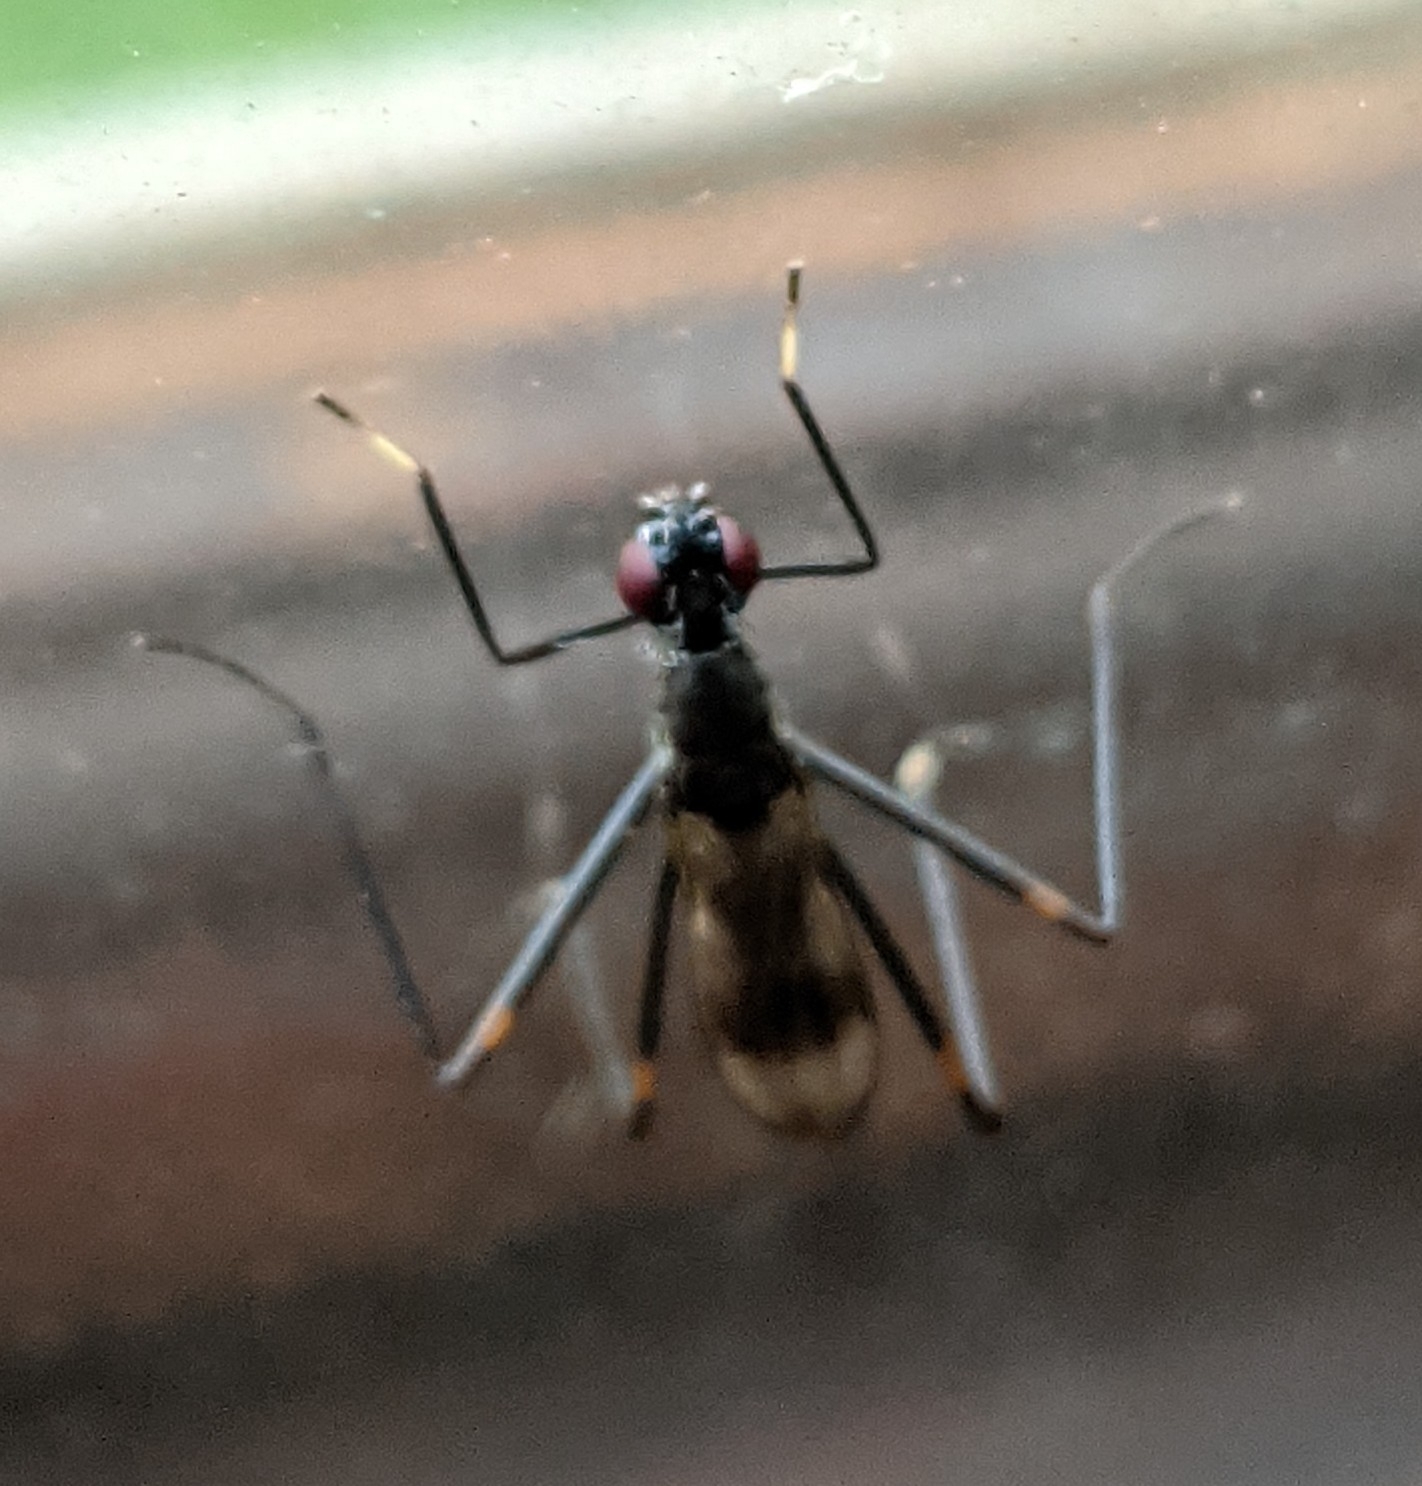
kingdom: Animalia
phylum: Arthropoda
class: Insecta
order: Diptera
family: Micropezidae
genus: Rainieria
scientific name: Rainieria calceata
